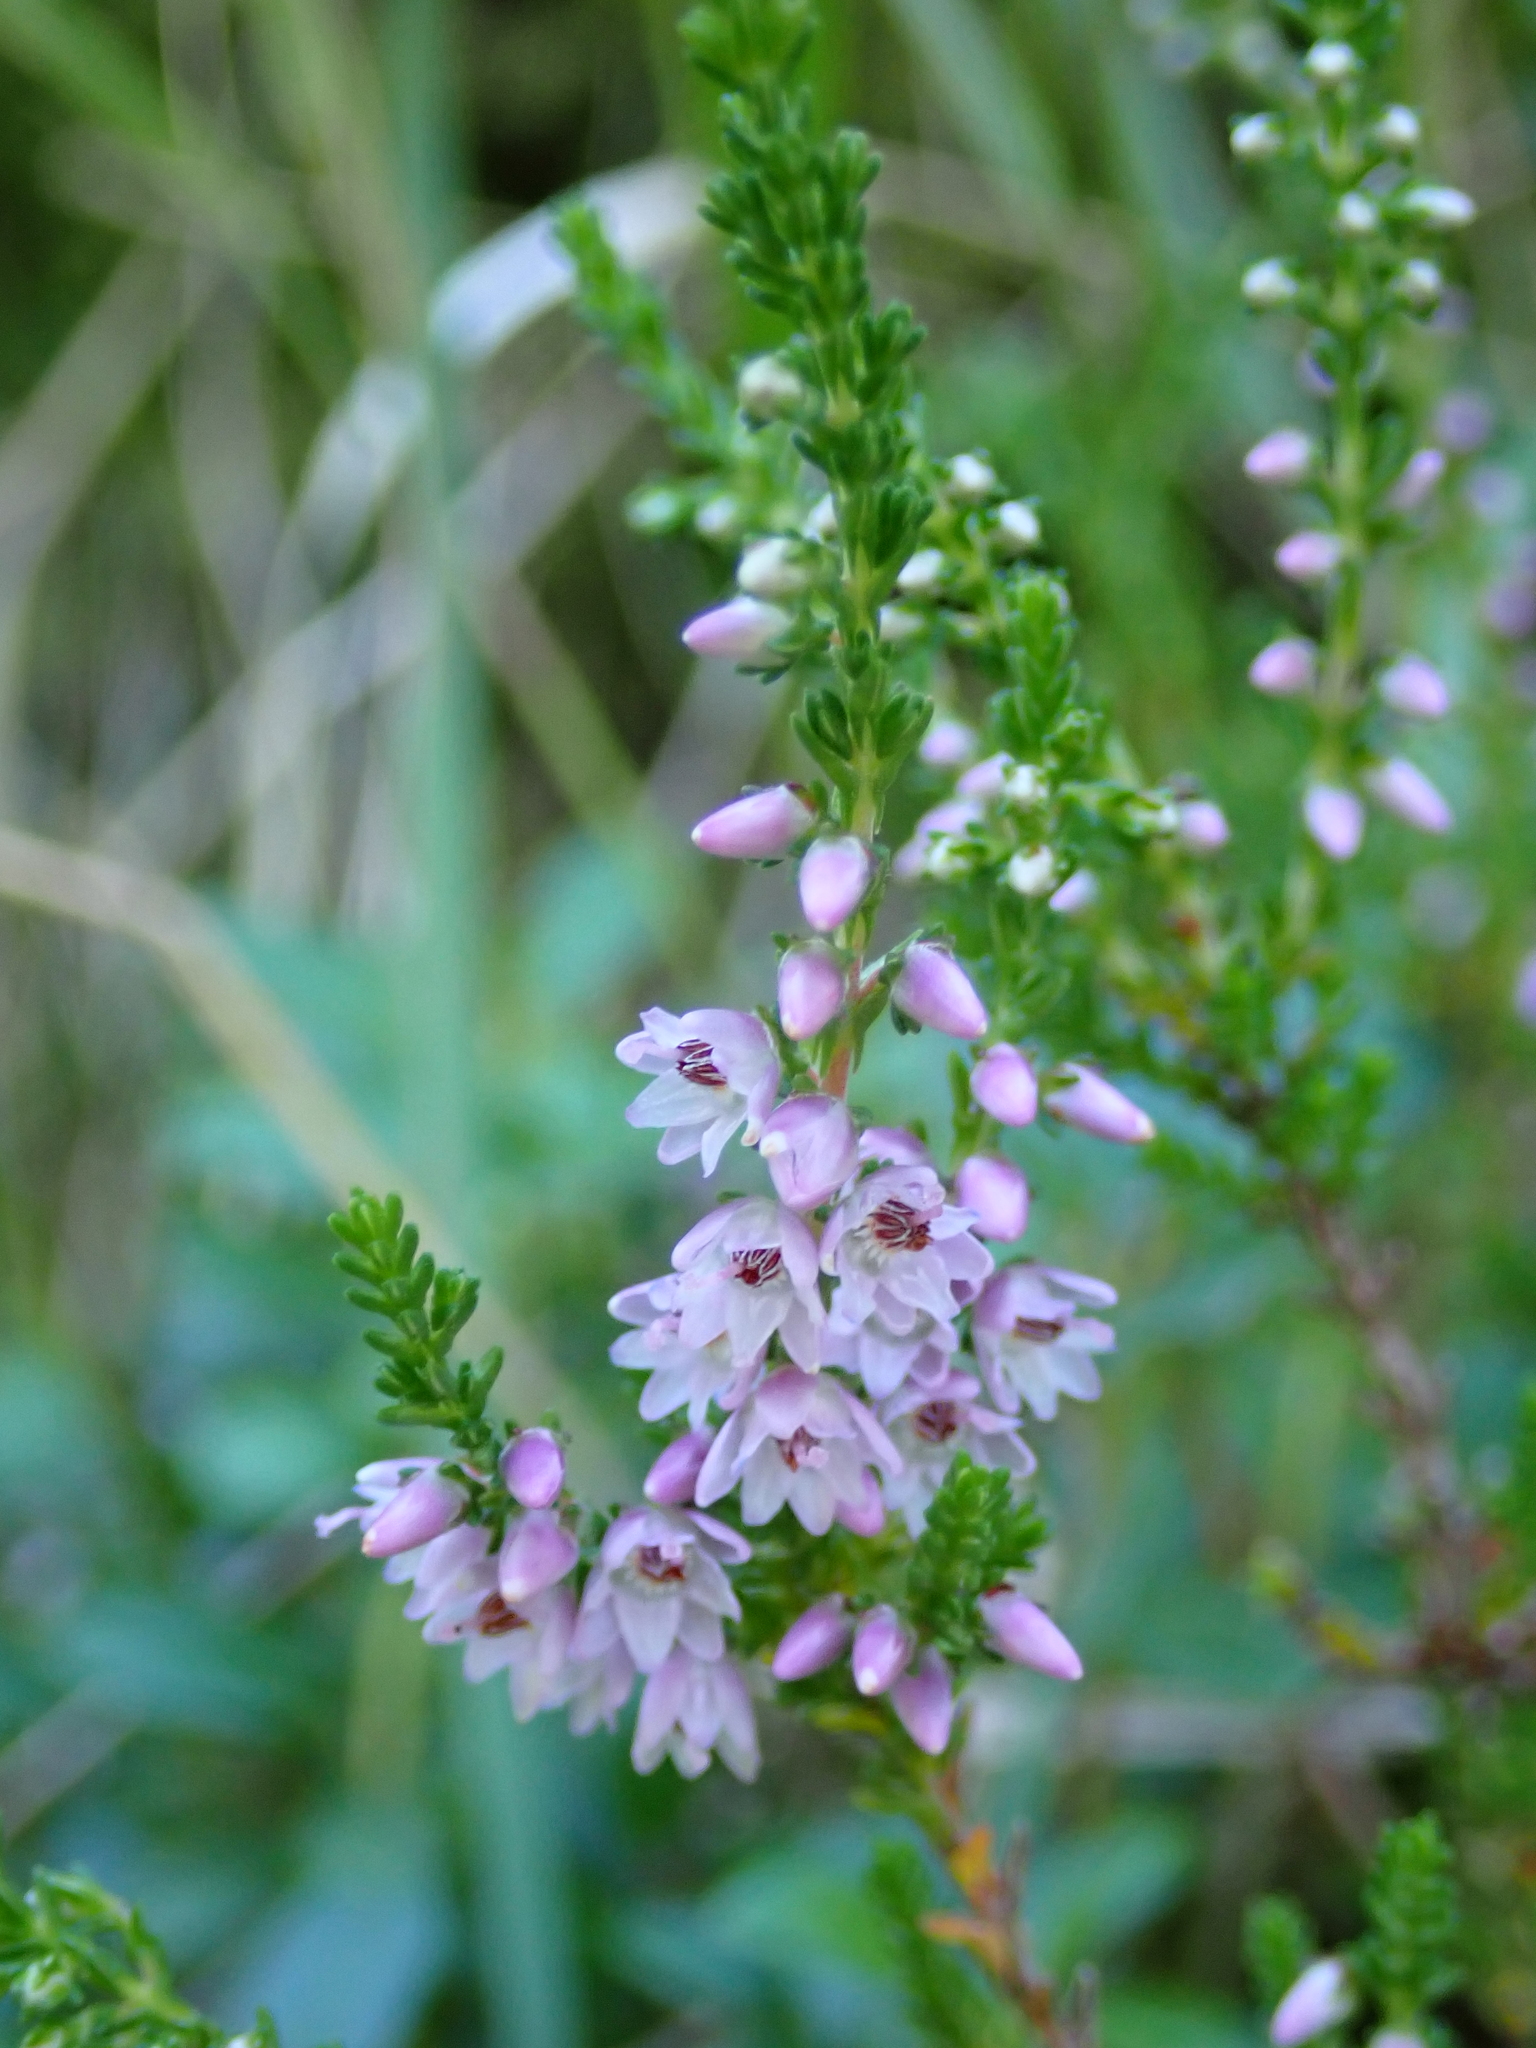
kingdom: Plantae
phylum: Tracheophyta
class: Magnoliopsida
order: Ericales
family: Ericaceae
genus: Calluna
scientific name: Calluna vulgaris
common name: Heather
